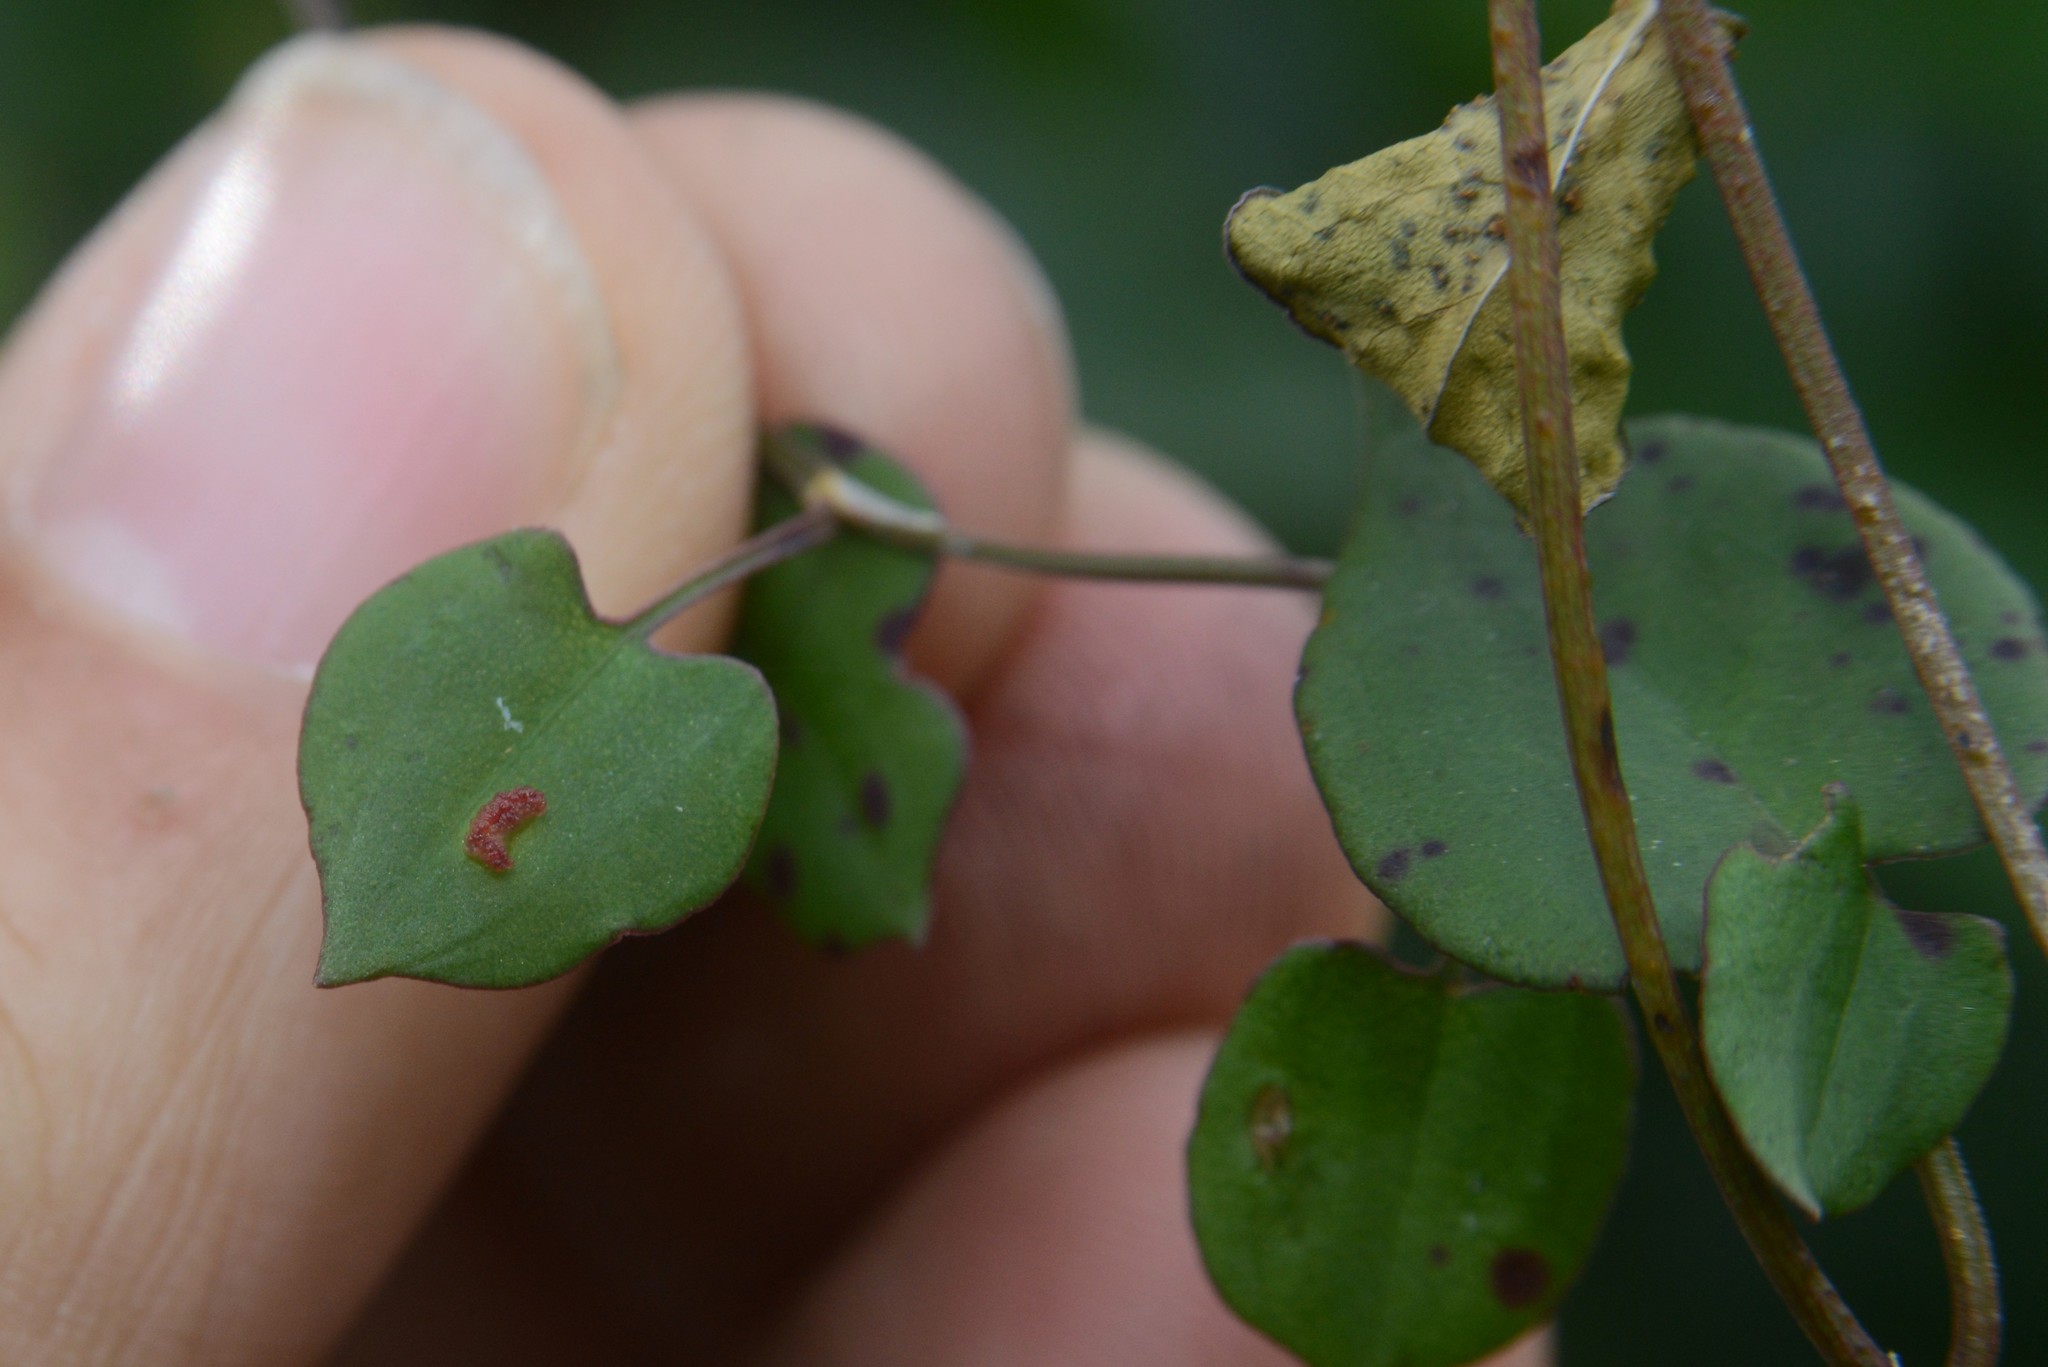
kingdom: Animalia
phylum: Arthropoda
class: Arachnida
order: Trombidiformes
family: Eriophyidae
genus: Aceria
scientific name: Aceria lamii
